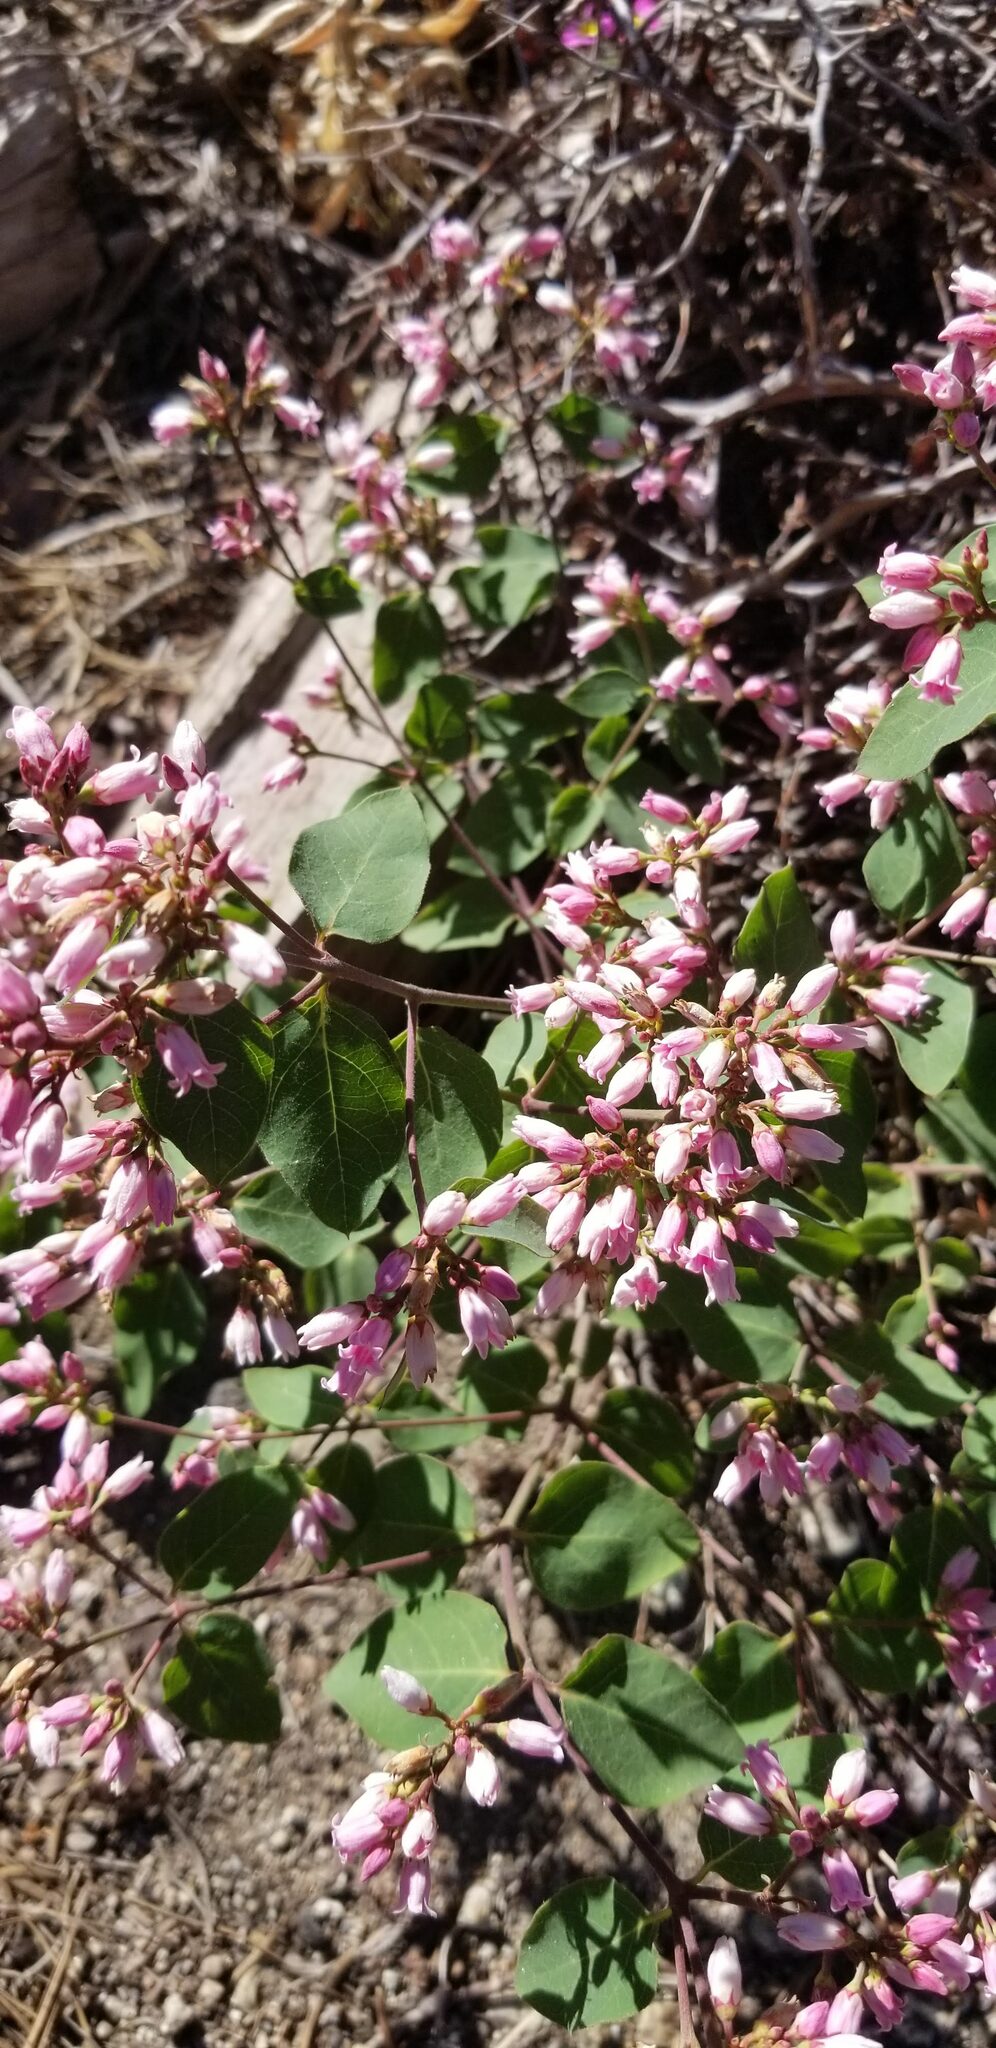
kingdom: Plantae
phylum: Tracheophyta
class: Magnoliopsida
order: Gentianales
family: Apocynaceae
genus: Apocynum
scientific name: Apocynum androsaemifolium
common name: Spreading dogbane
